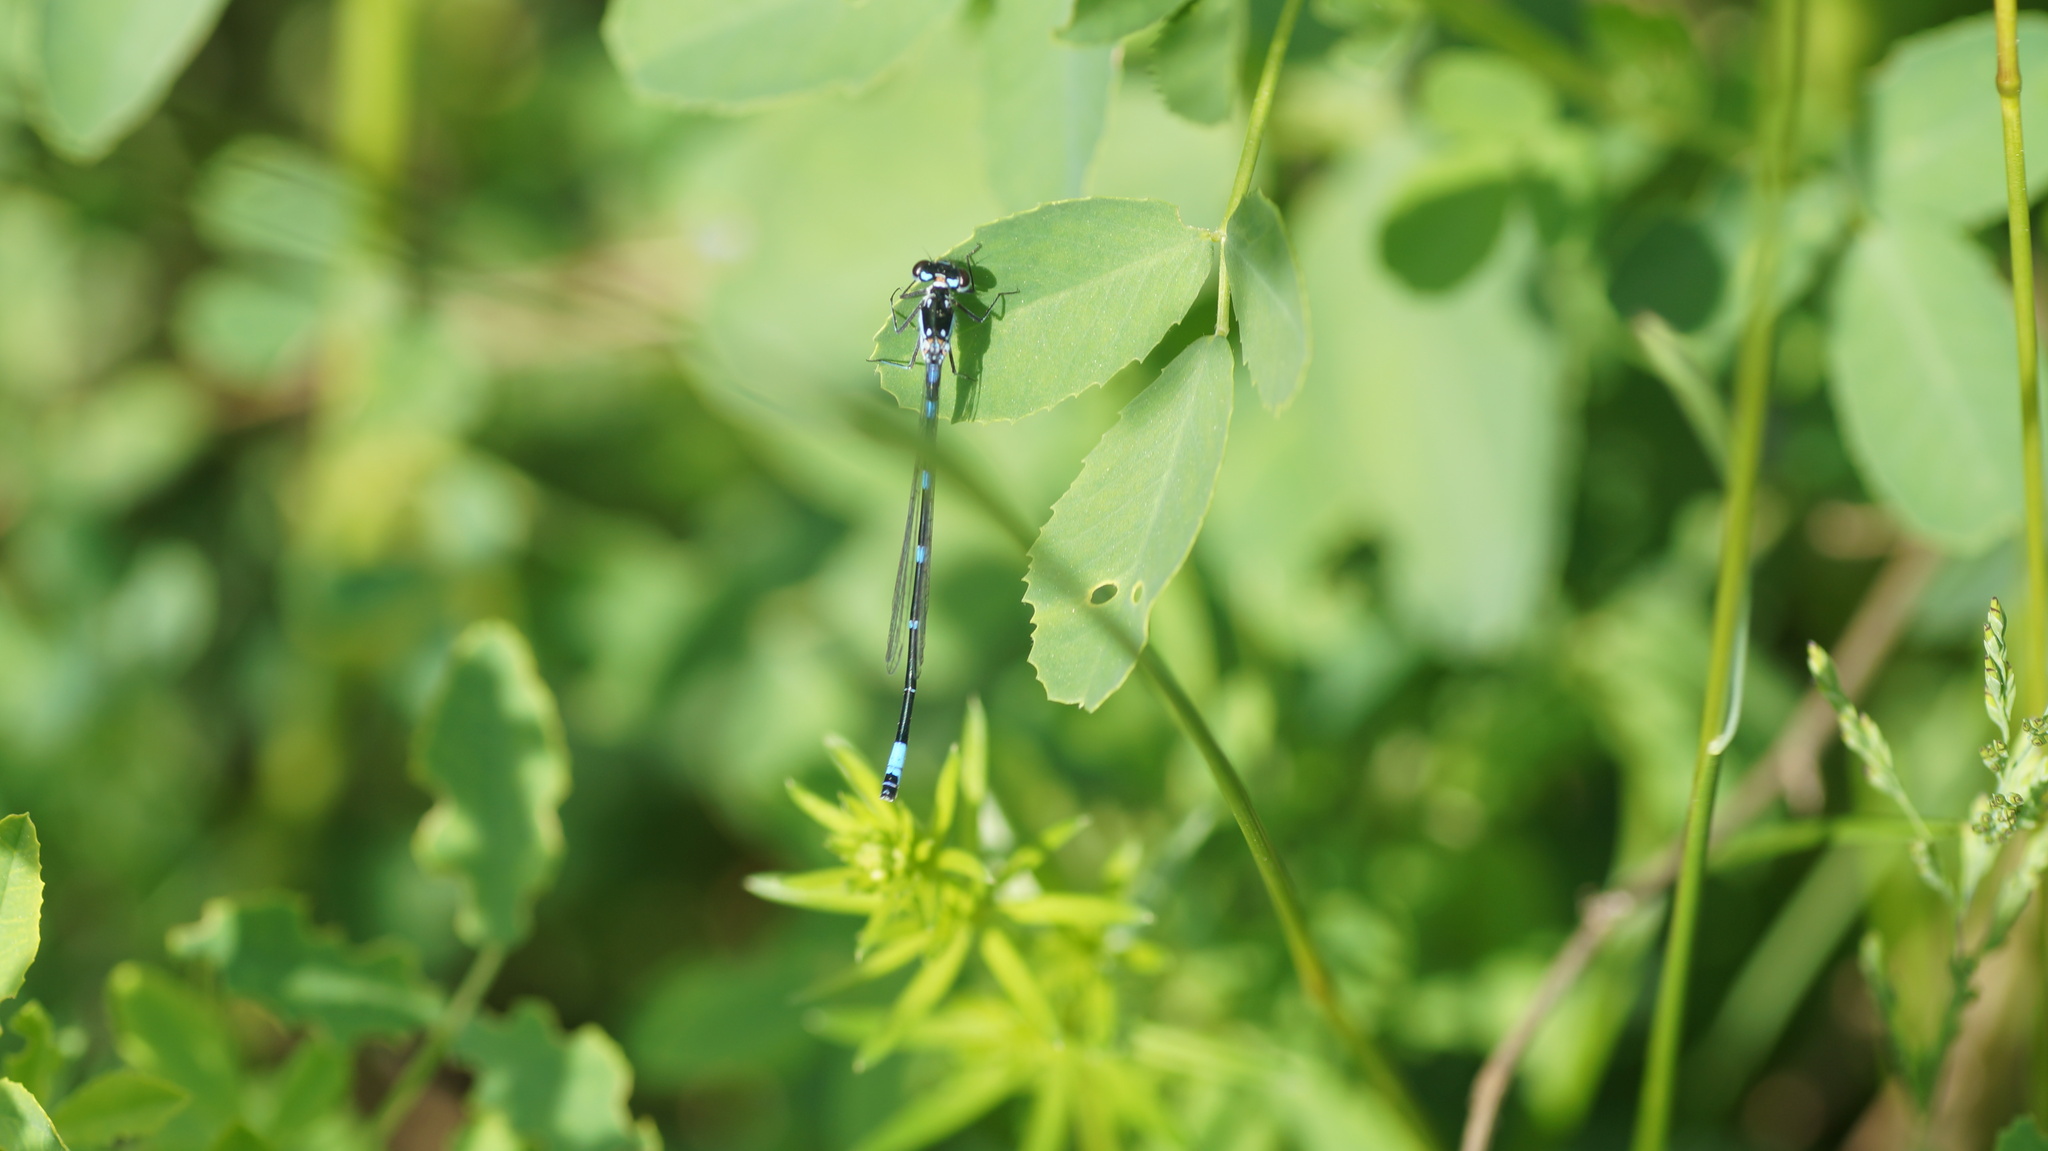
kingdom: Animalia
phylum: Arthropoda
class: Insecta
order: Odonata
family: Coenagrionidae
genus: Coenagrion
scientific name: Coenagrion pulchellum
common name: Variable bluet
